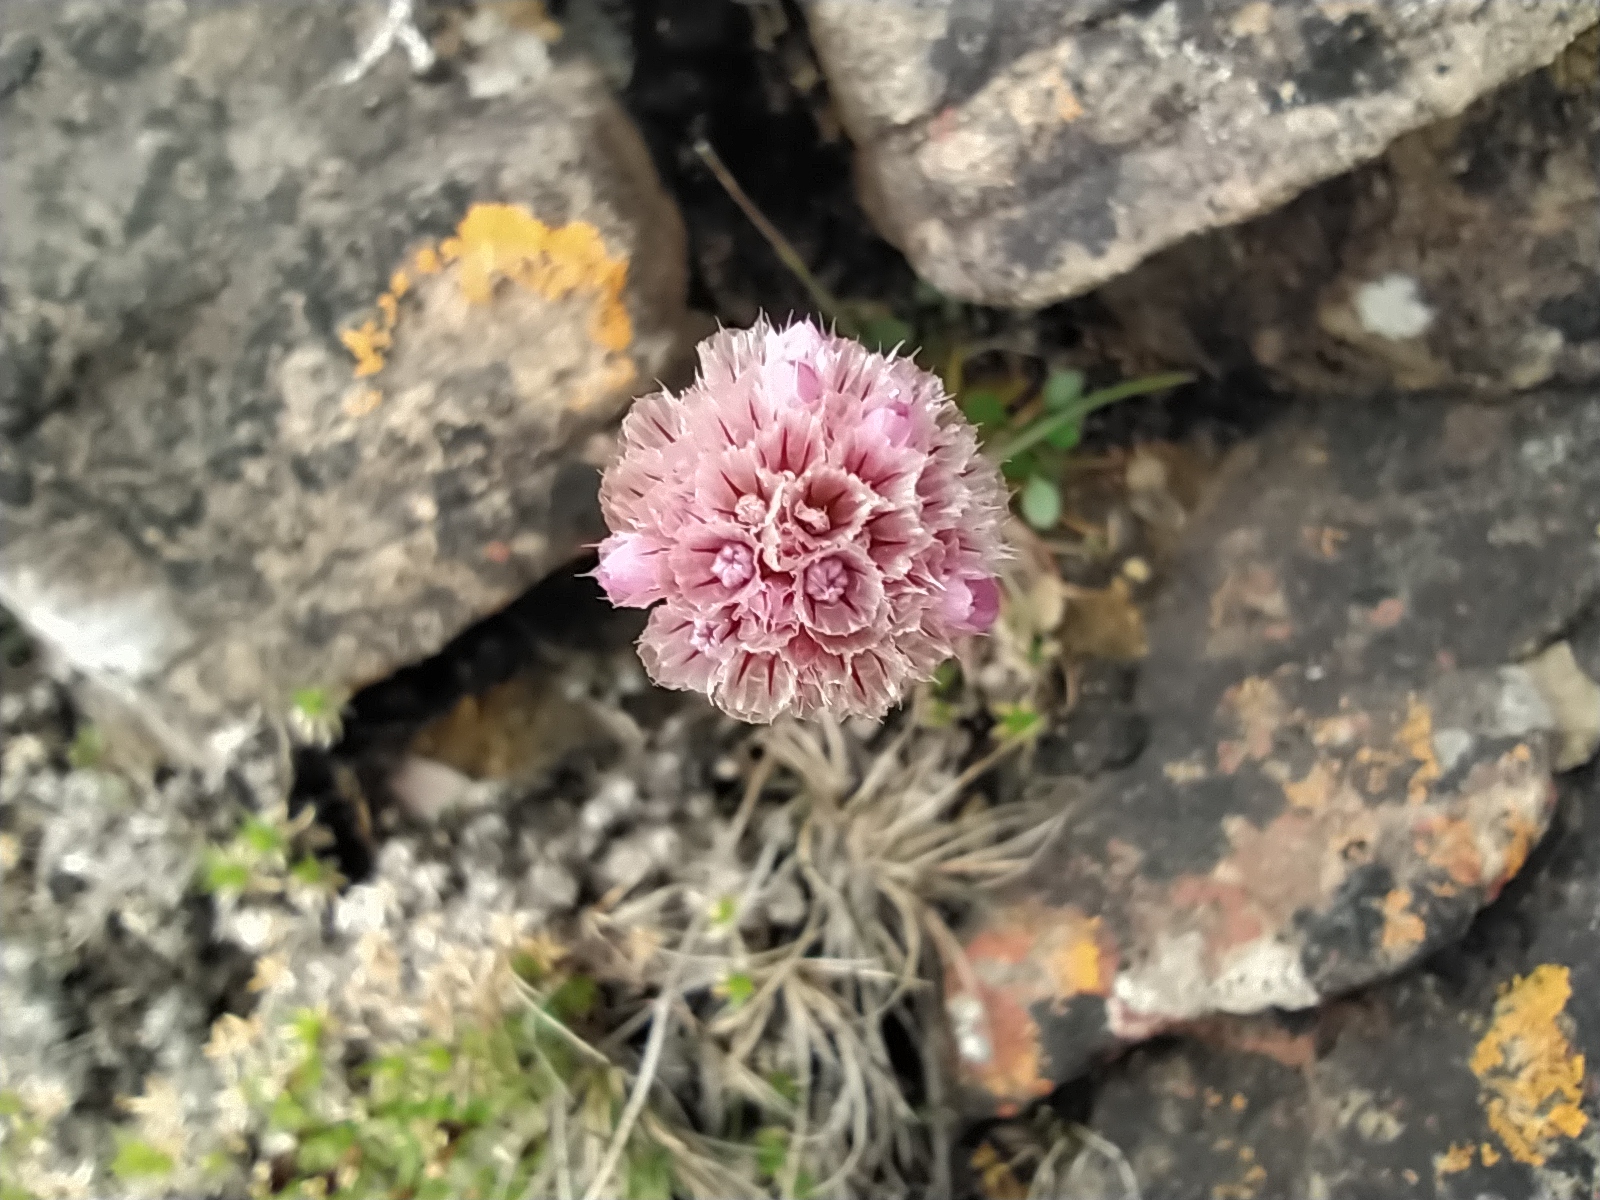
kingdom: Plantae
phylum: Tracheophyta
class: Magnoliopsida
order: Caryophyllales
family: Plumbaginaceae
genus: Armeria
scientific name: Armeria maritima
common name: Thrift
